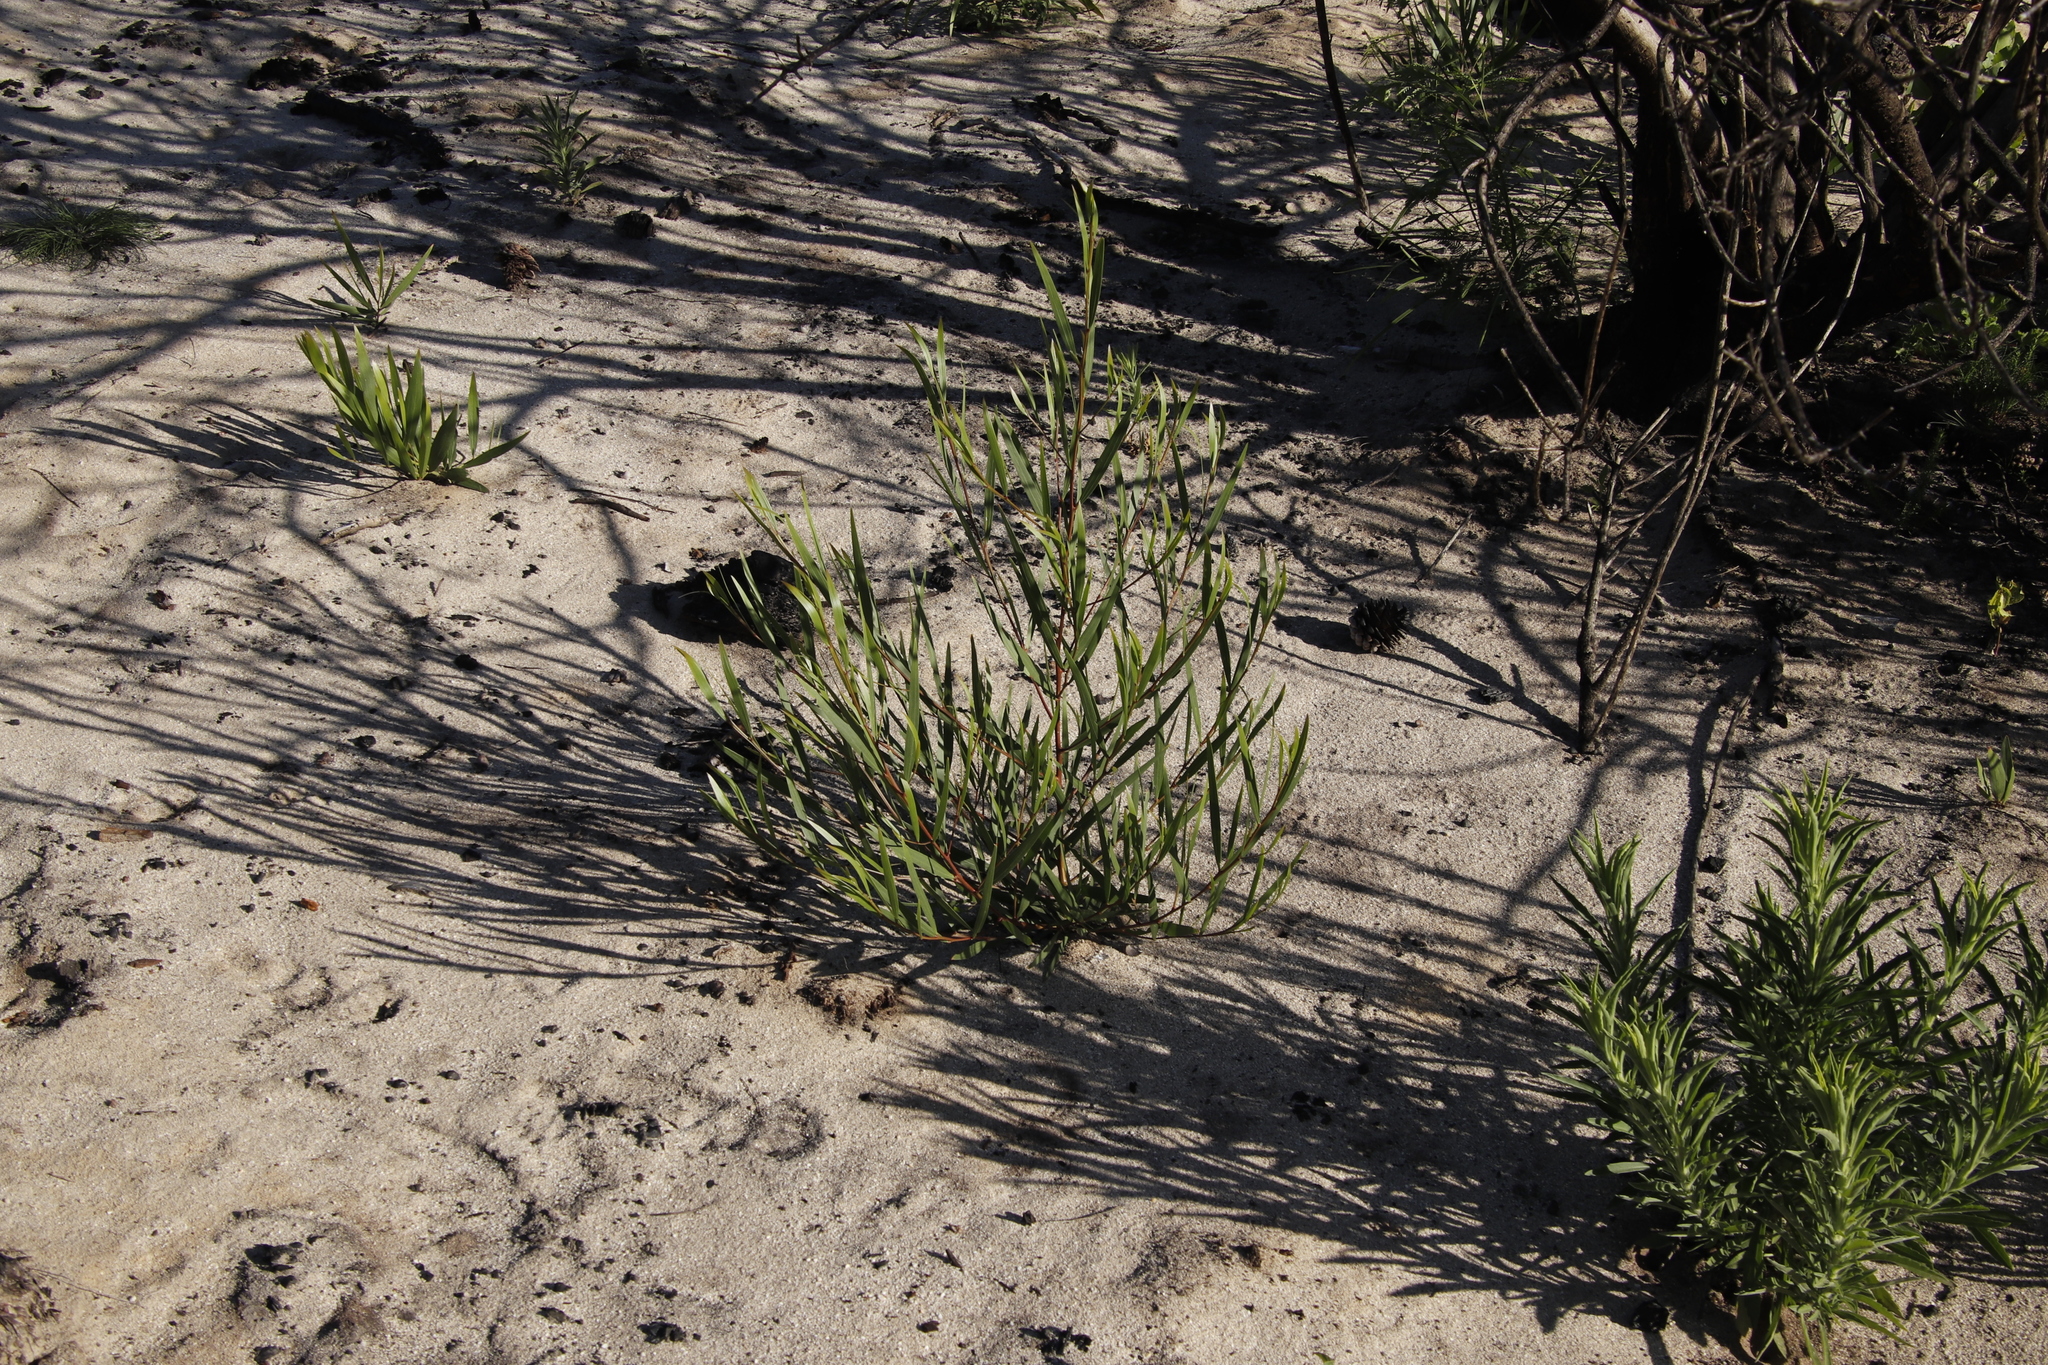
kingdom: Plantae
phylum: Tracheophyta
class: Magnoliopsida
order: Fabales
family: Fabaceae
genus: Acacia
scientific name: Acacia longifolia
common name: Sydney golden wattle
